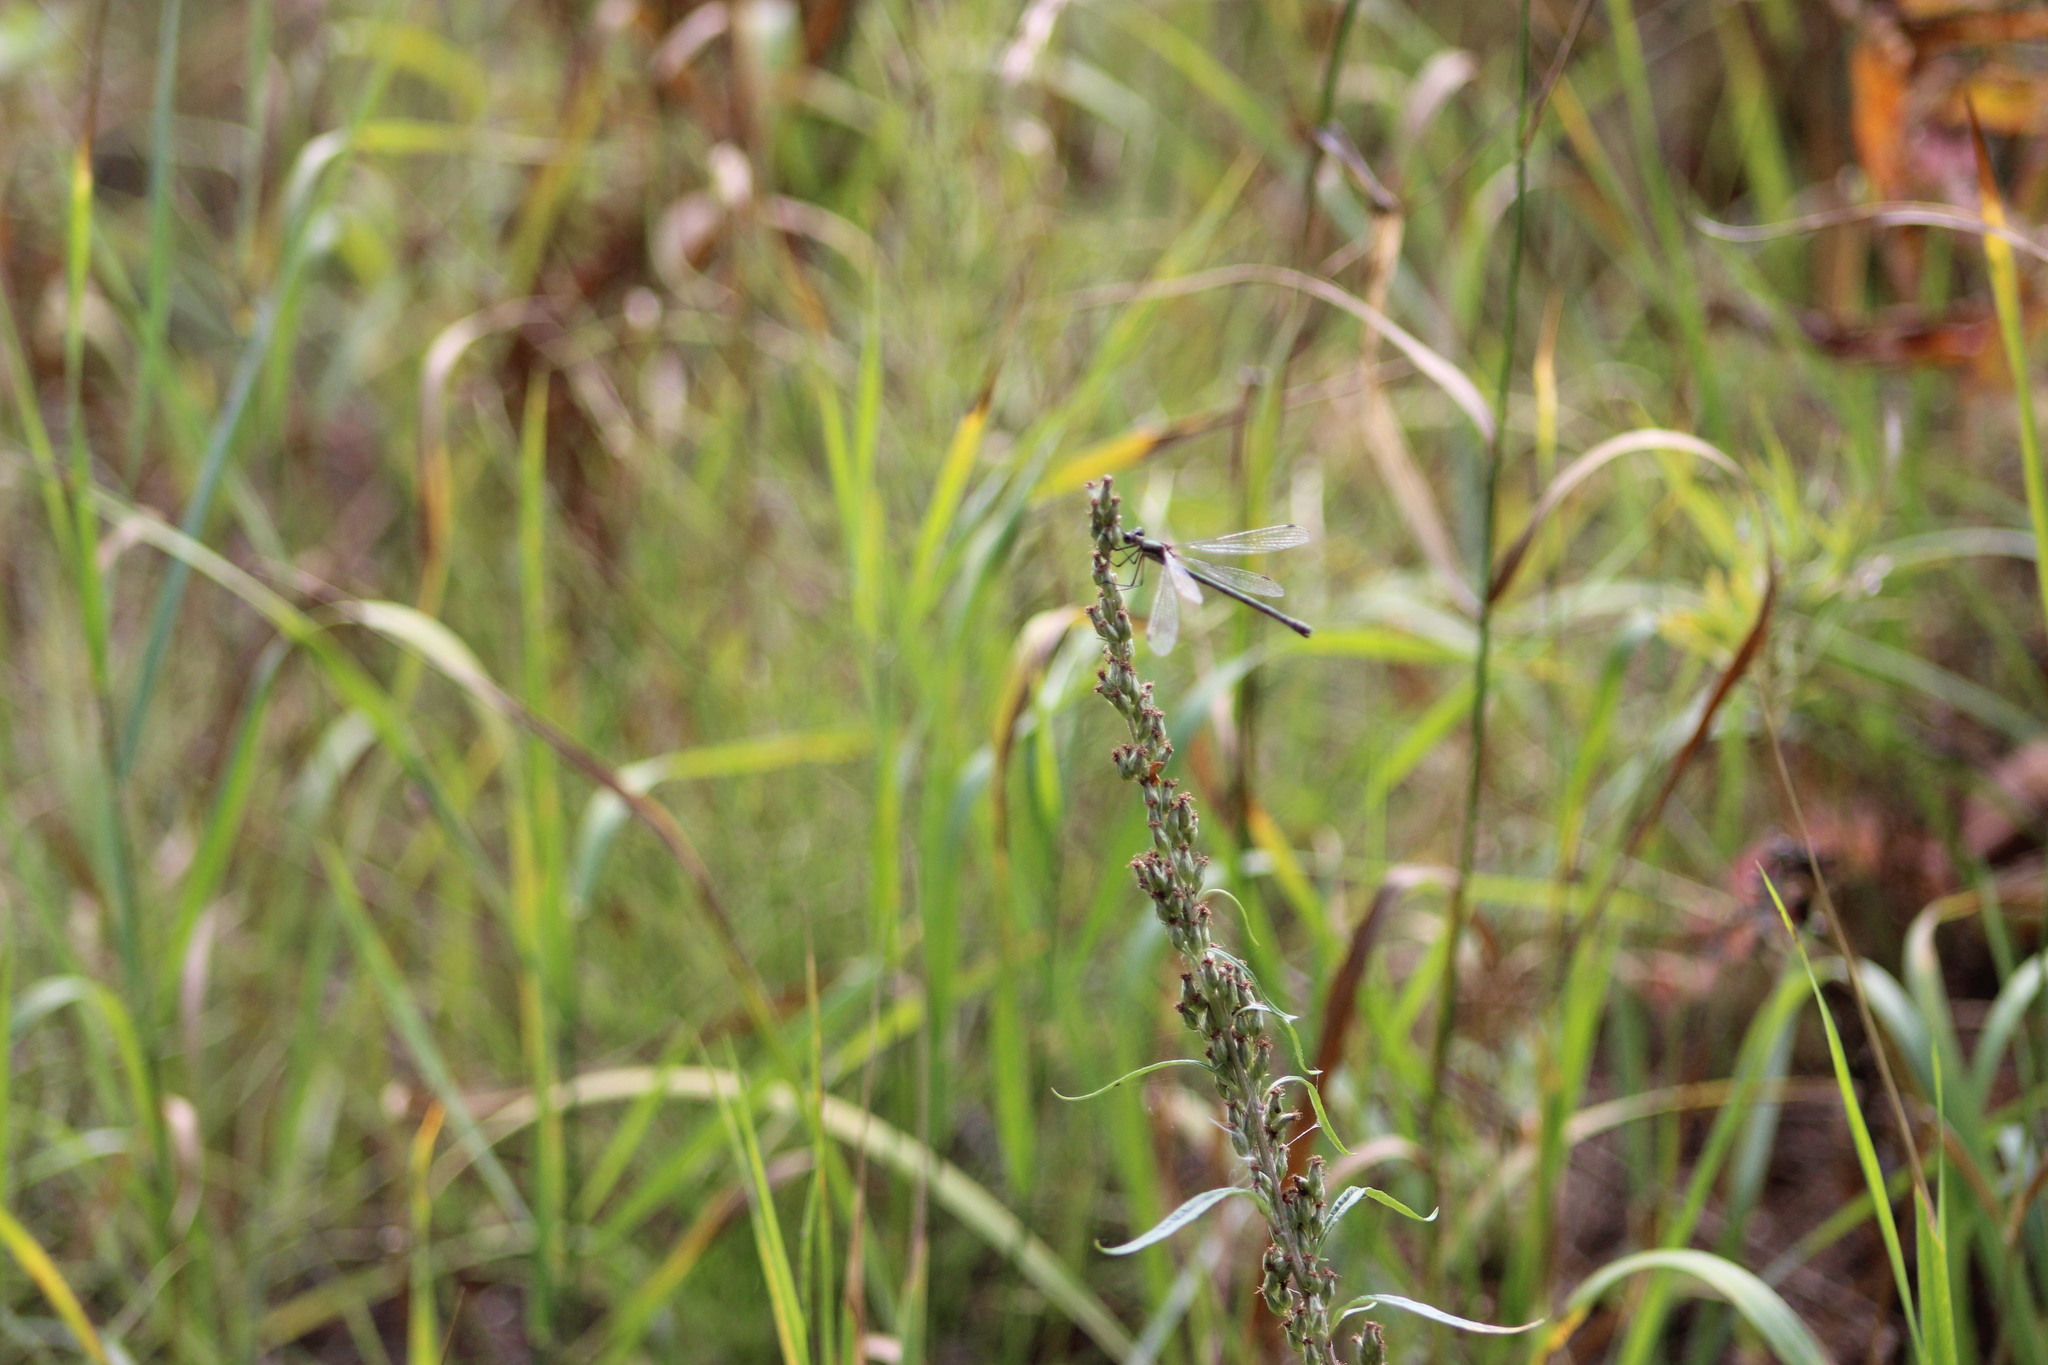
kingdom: Animalia
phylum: Arthropoda
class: Insecta
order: Odonata
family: Lestidae
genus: Lestes
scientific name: Lestes sponsa
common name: Common spreadwing
